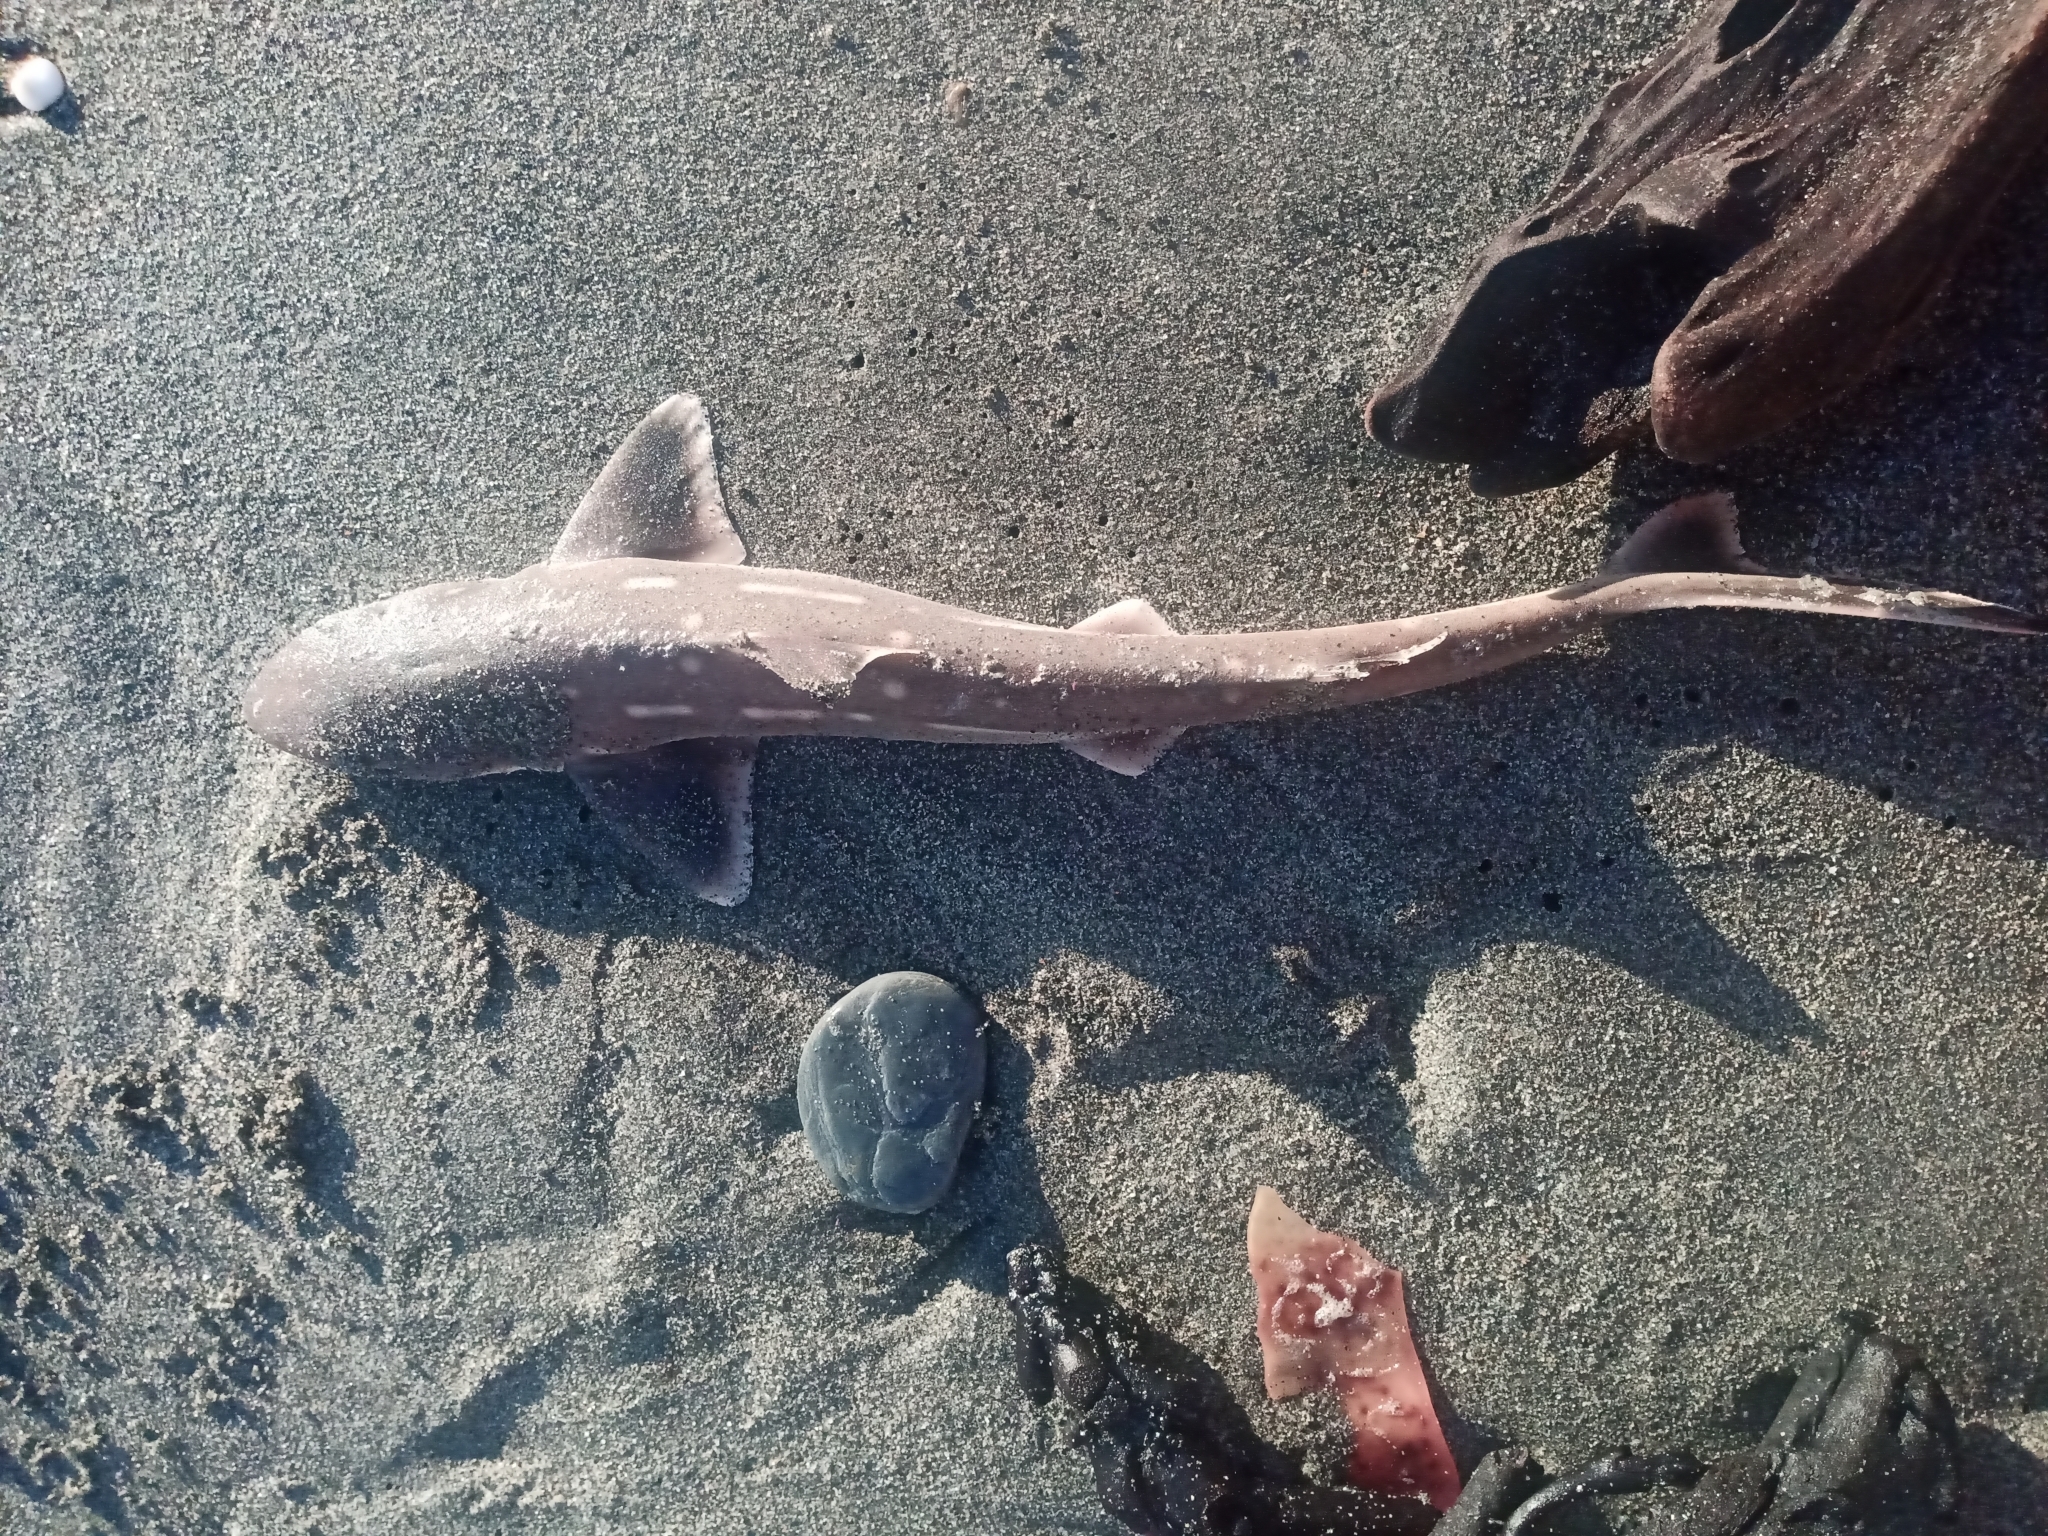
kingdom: Animalia
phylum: Chordata
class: Elasmobranchii
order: Squaliformes
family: Squalidae
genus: Squalus
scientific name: Squalus acanthias
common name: Spurdog
